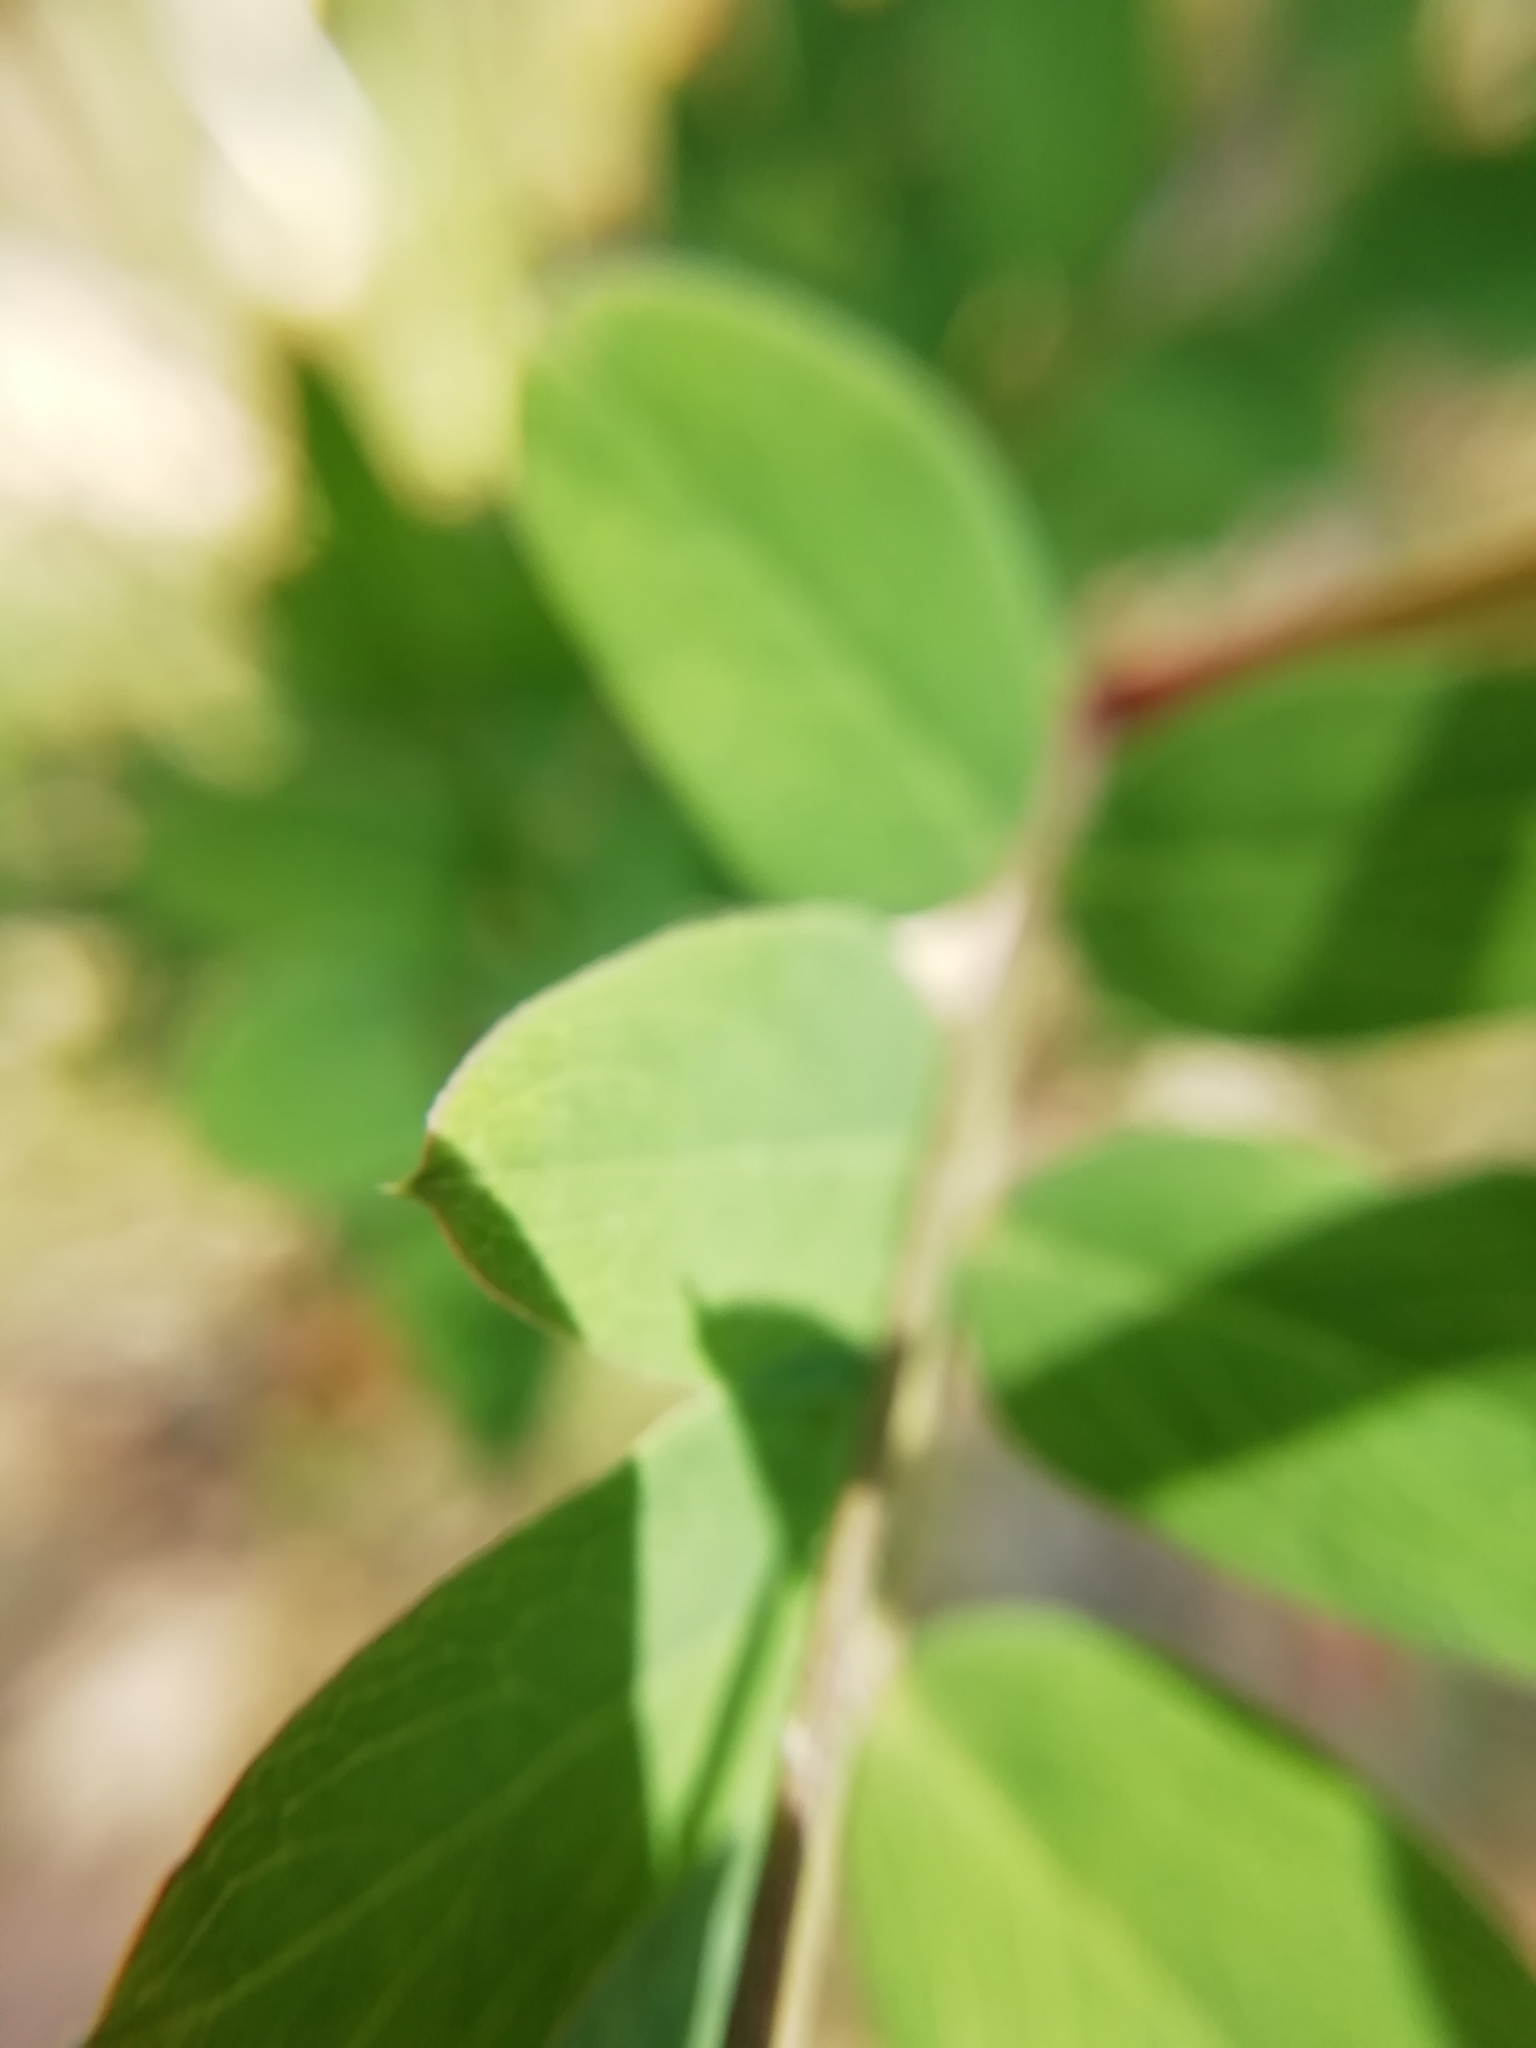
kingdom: Plantae
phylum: Tracheophyta
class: Magnoliopsida
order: Fabales
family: Fabaceae
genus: Lathyrus
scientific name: Lathyrus niger
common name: Black pea
